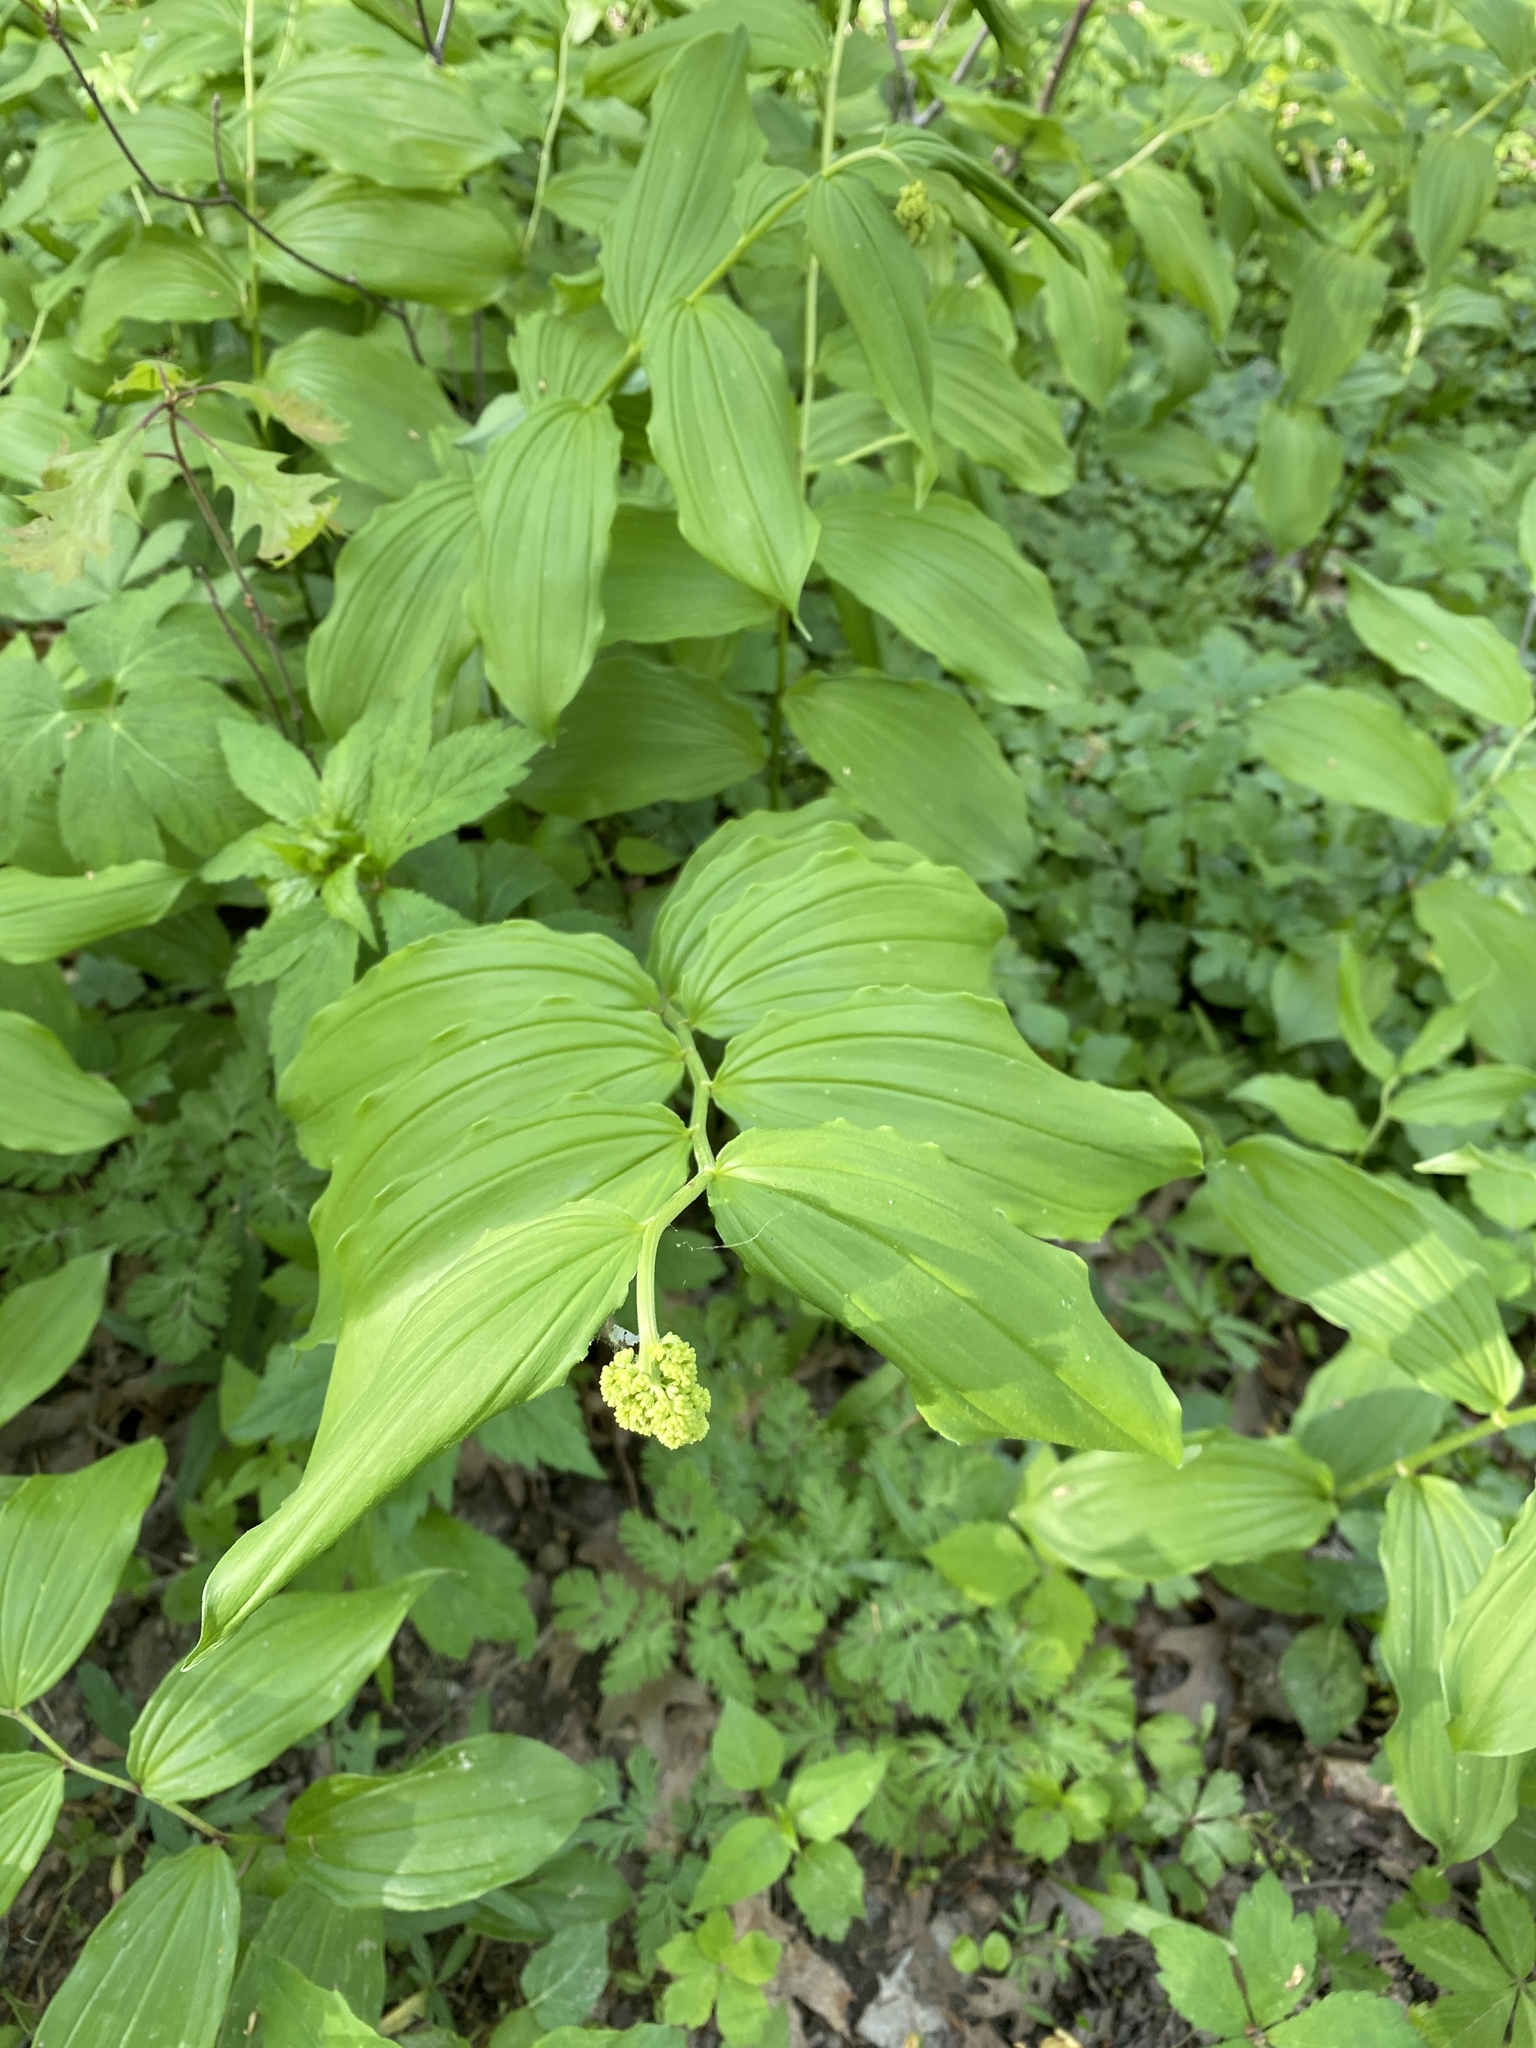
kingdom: Plantae
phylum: Tracheophyta
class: Liliopsida
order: Asparagales
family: Asparagaceae
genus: Maianthemum
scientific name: Maianthemum racemosum
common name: False spikenard
